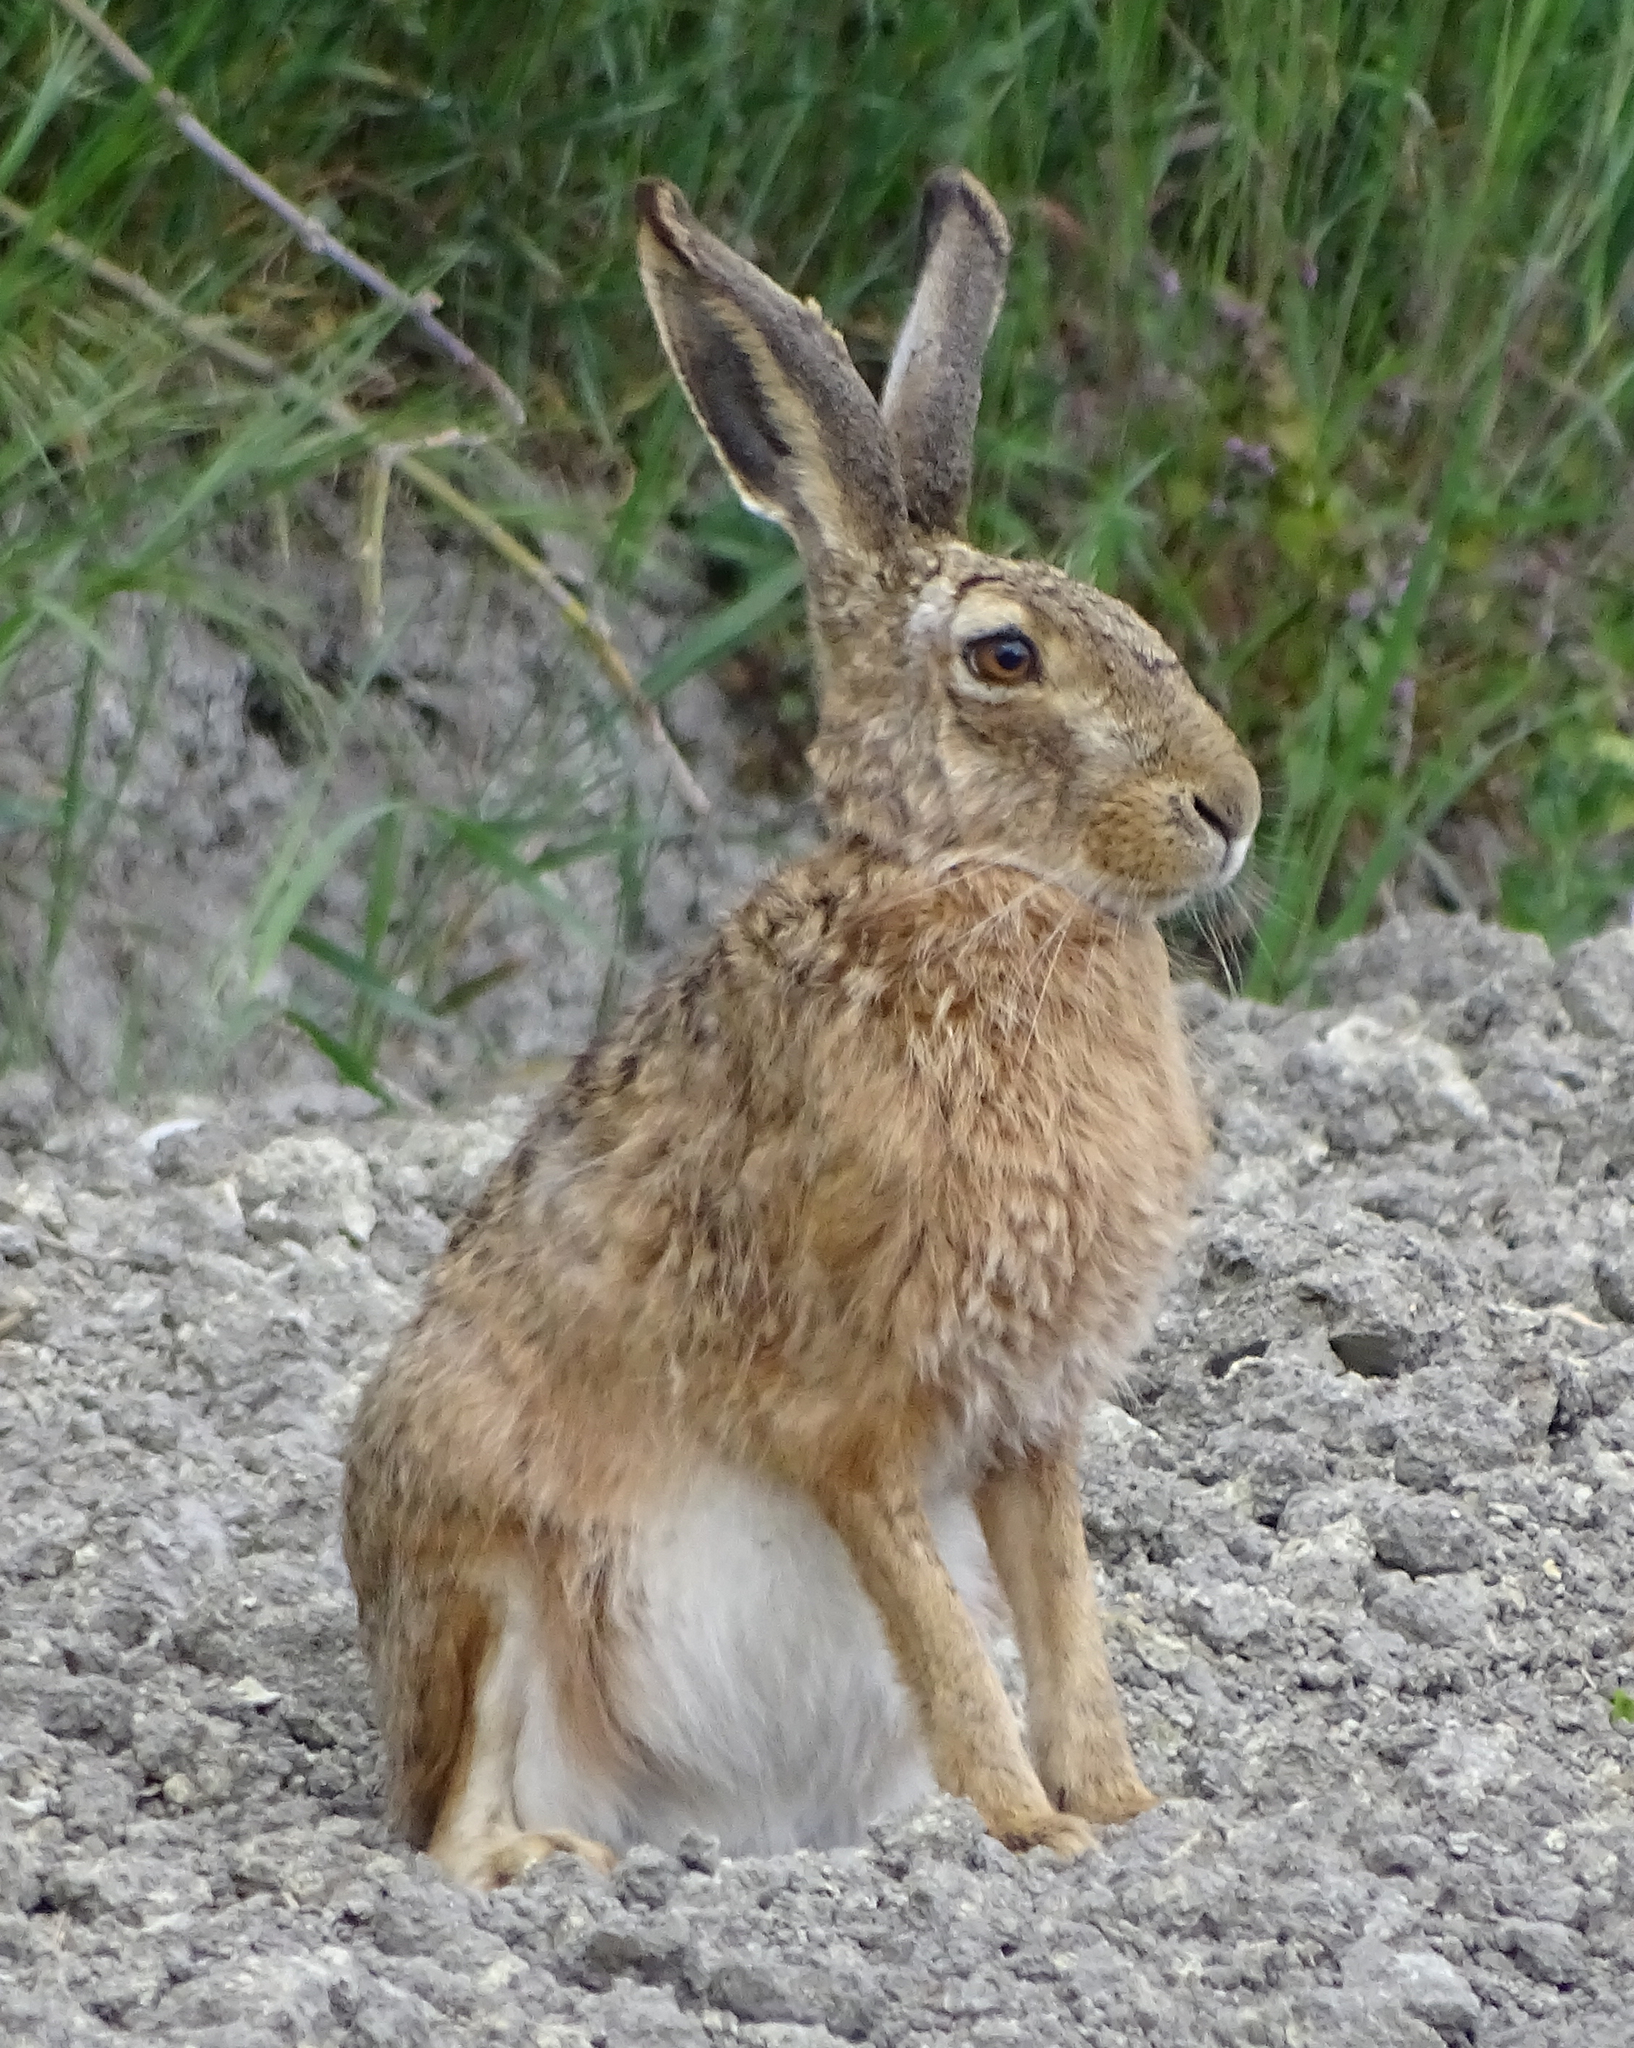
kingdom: Animalia
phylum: Chordata
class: Mammalia
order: Lagomorpha
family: Leporidae
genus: Lepus
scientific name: Lepus europaeus
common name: European hare
